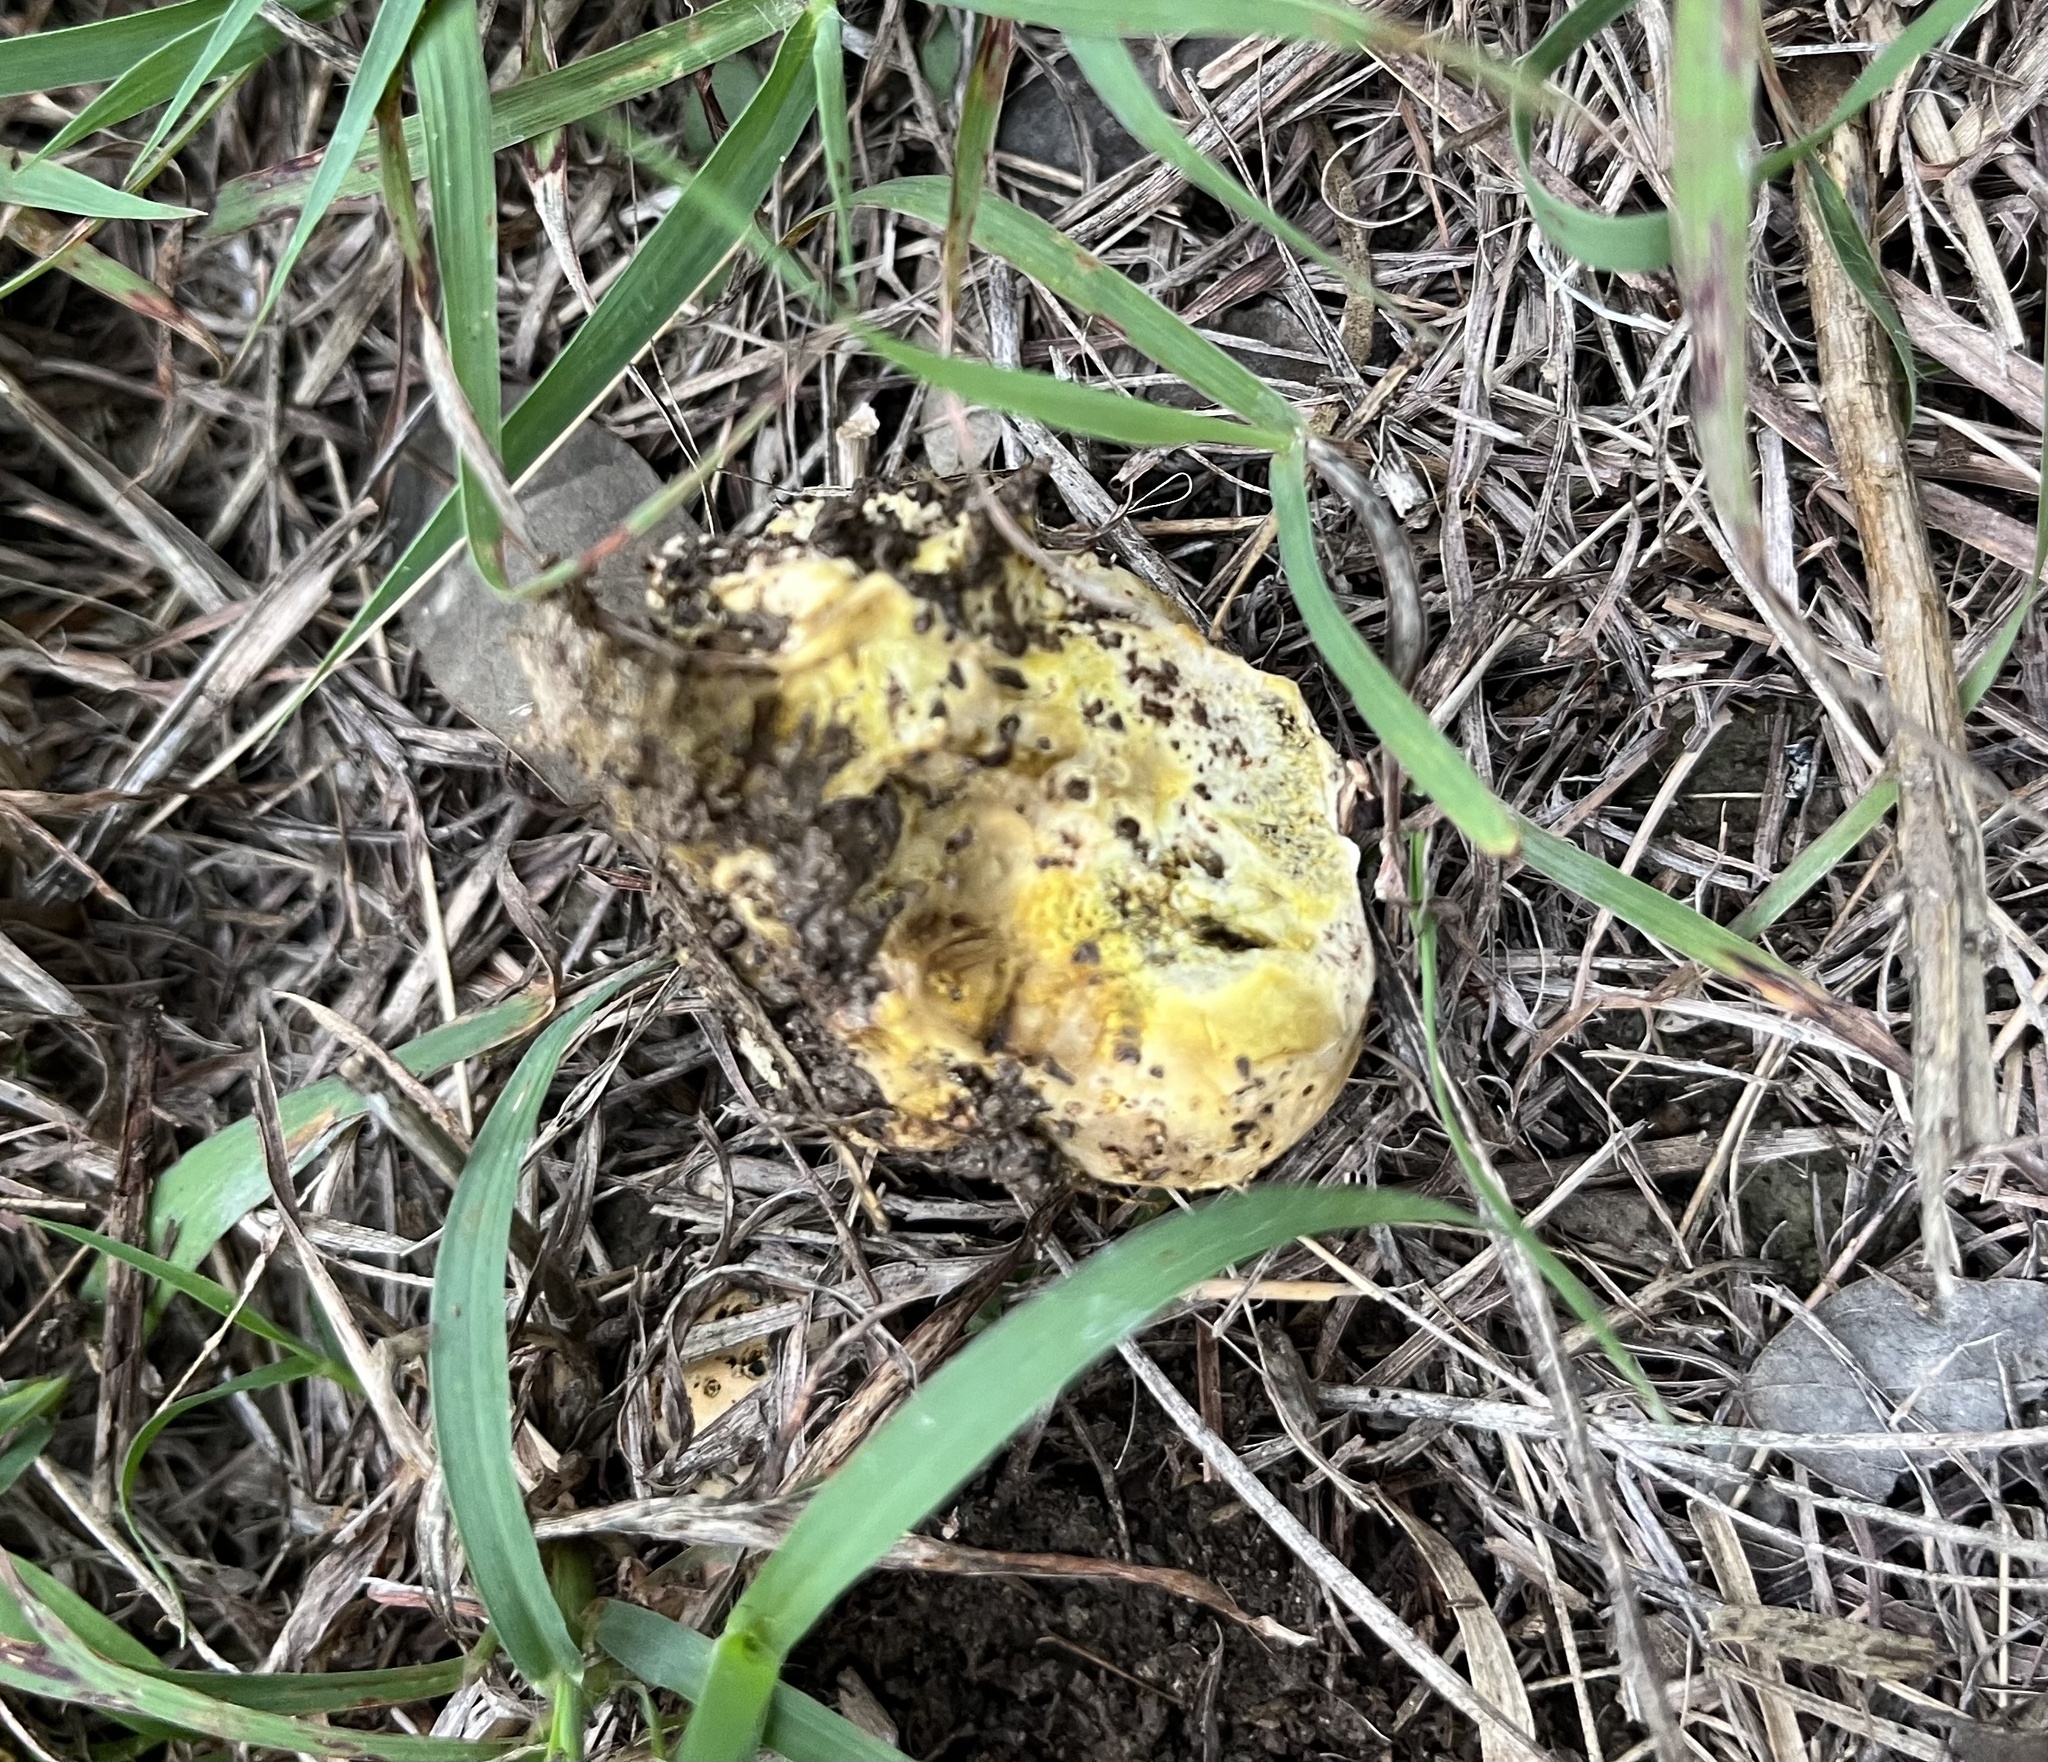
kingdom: Fungi
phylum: Basidiomycota
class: Agaricomycetes
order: Boletales
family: Sclerodermataceae
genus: Pisolithus
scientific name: Pisolithus arenarius
